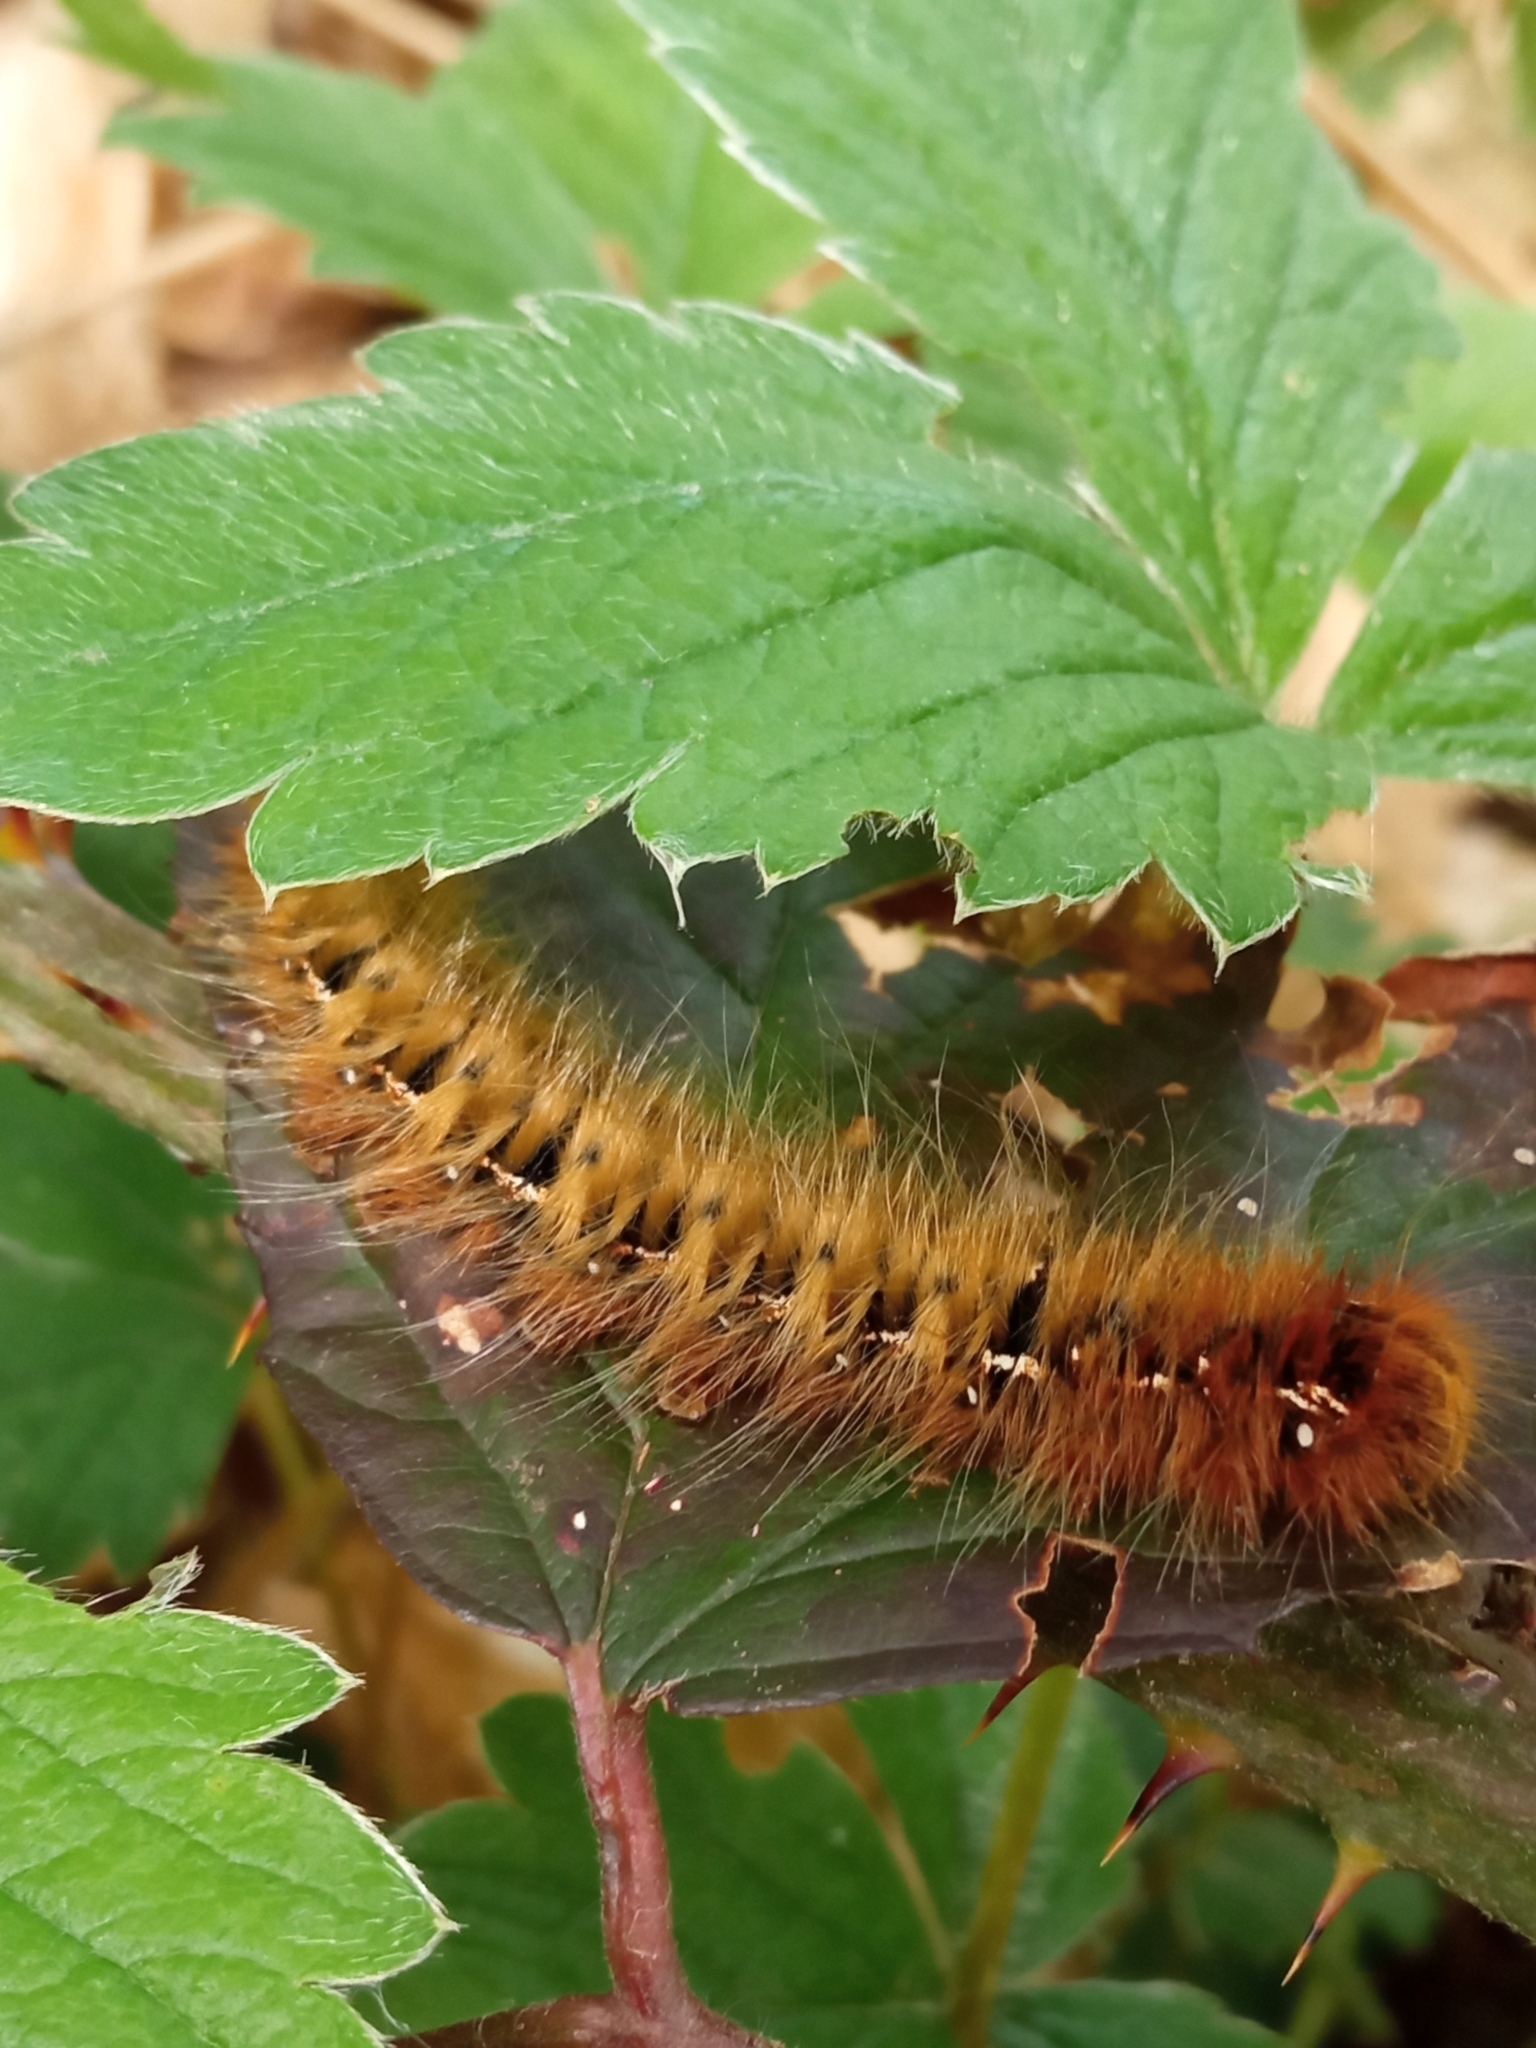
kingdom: Animalia
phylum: Arthropoda
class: Insecta
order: Lepidoptera
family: Lasiocampidae
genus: Lasiocampa
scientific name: Lasiocampa quercus
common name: Oak eggar
